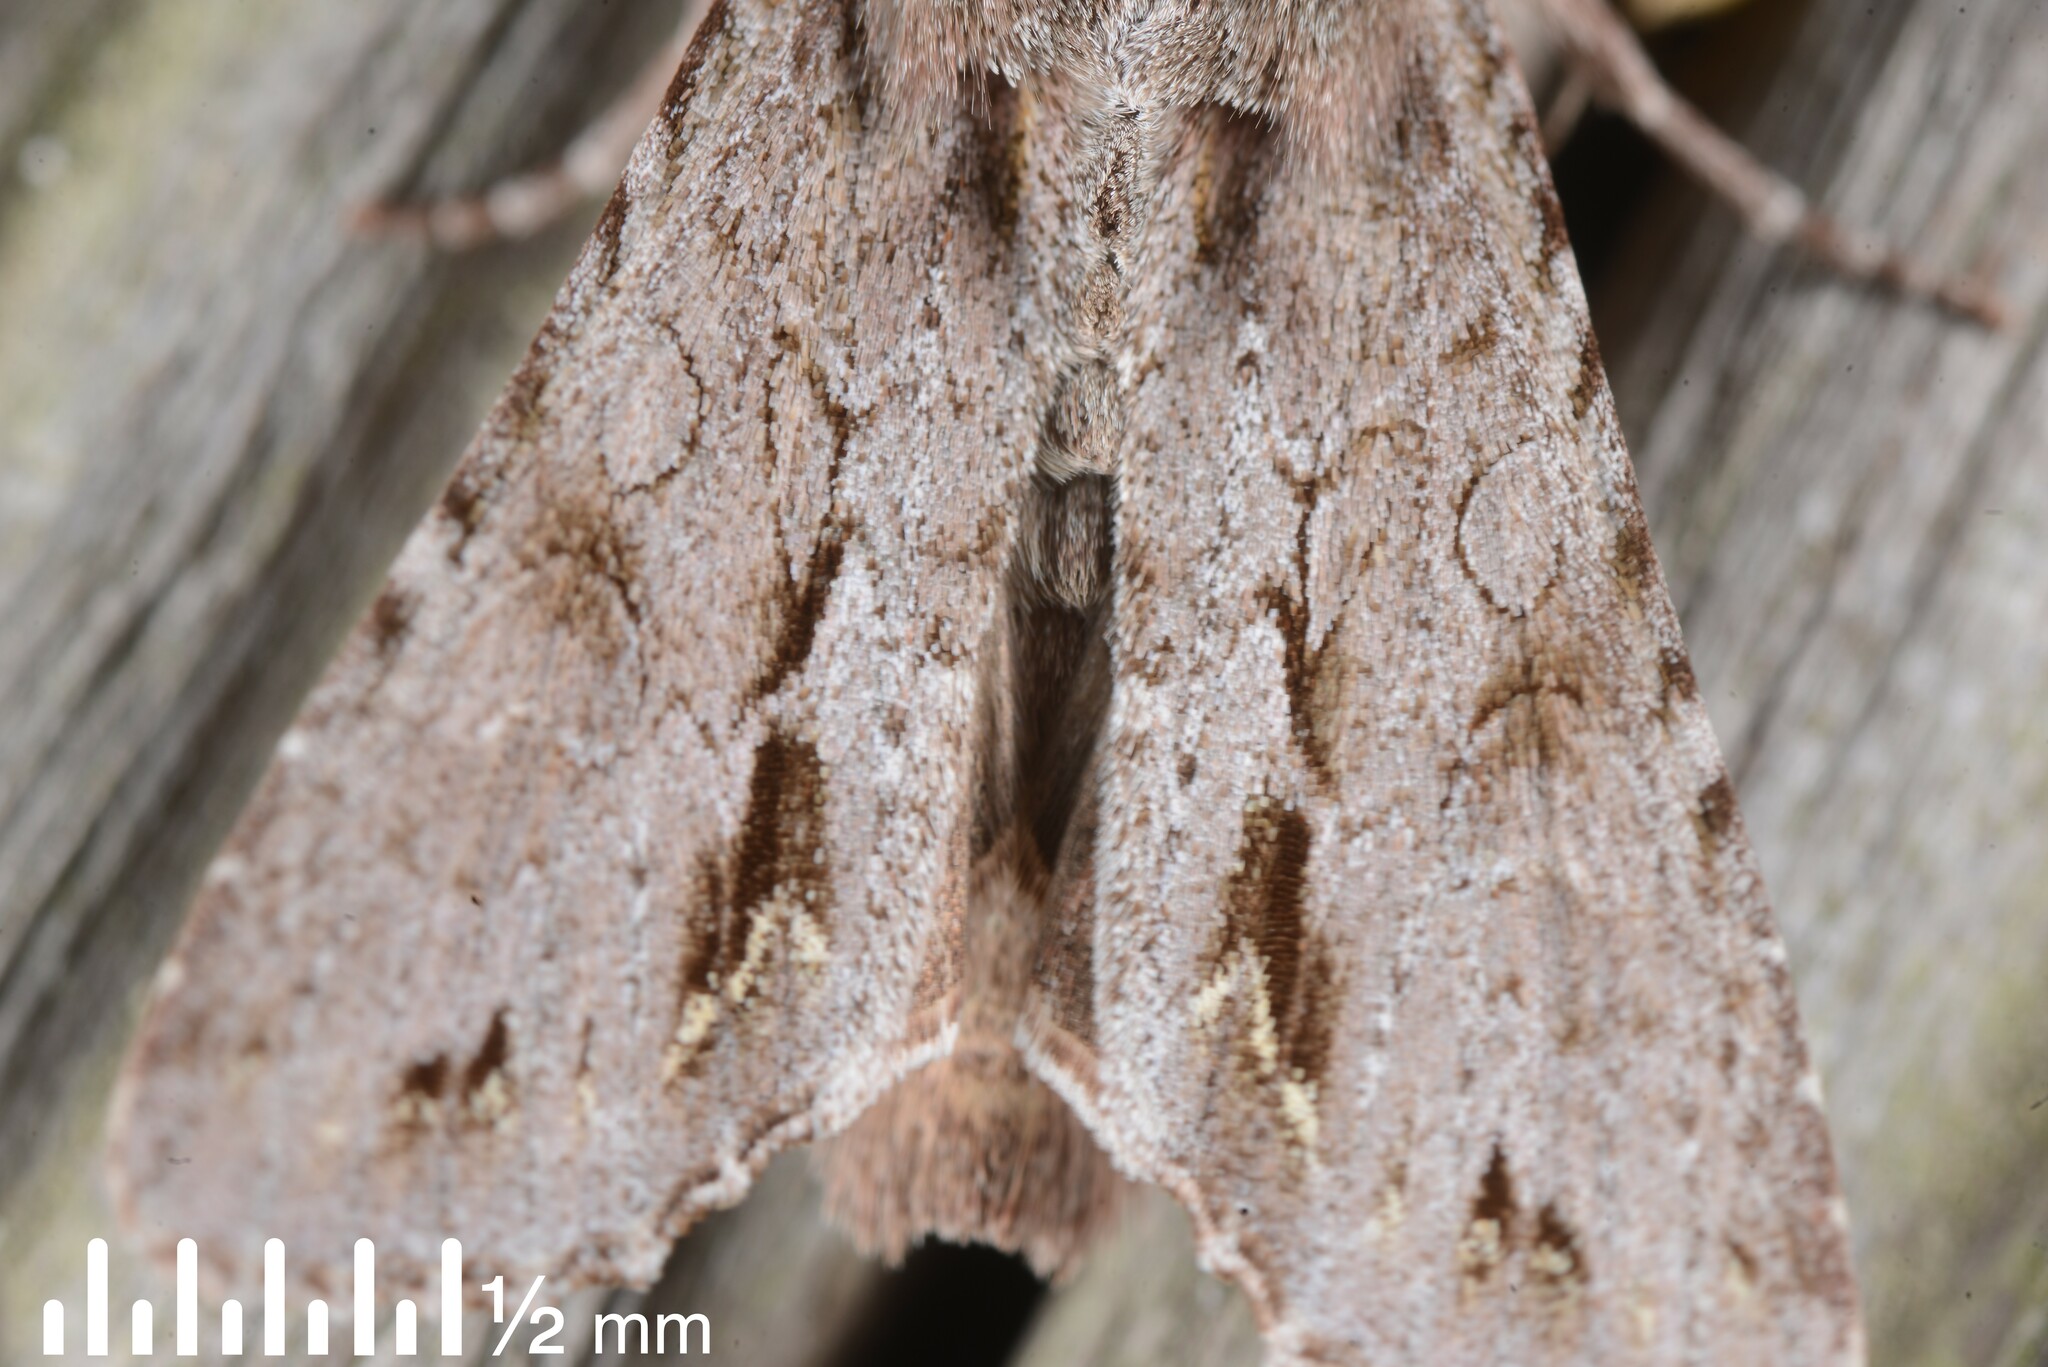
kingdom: Animalia
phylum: Arthropoda
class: Insecta
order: Lepidoptera
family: Noctuidae
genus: Ichneutica
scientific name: Ichneutica
